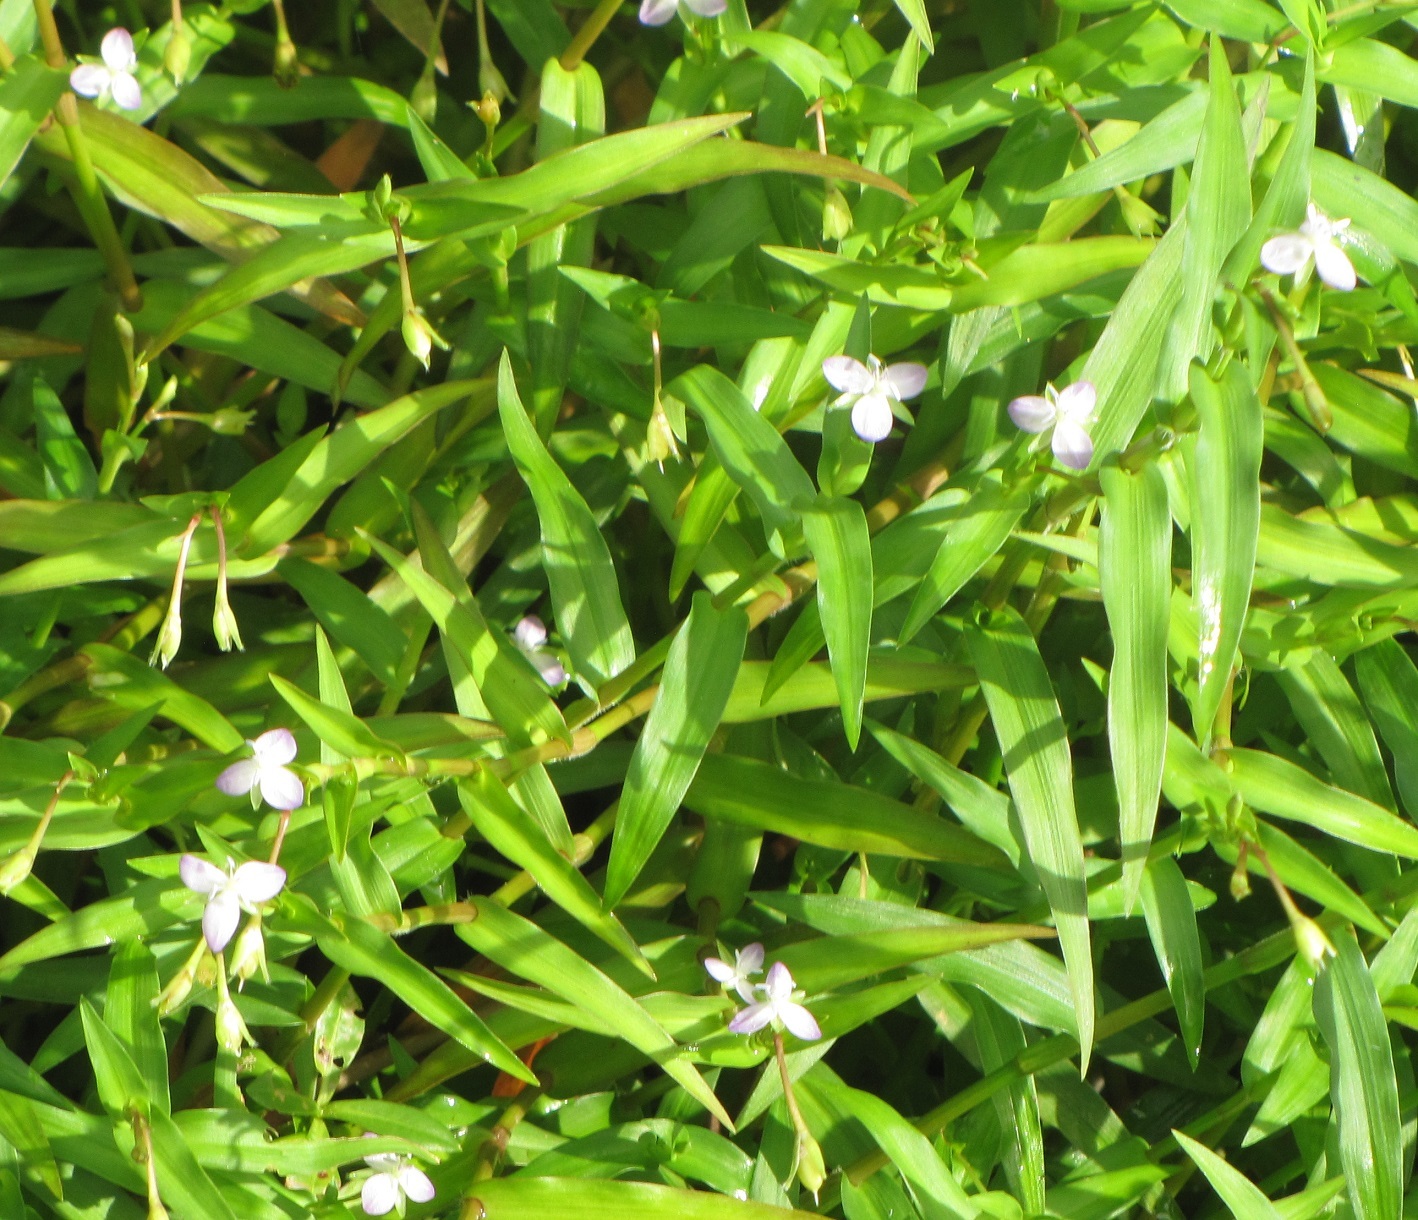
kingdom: Plantae
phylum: Tracheophyta
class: Liliopsida
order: Commelinales
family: Commelinaceae
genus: Murdannia
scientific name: Murdannia keisak
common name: Wartremoving herb
